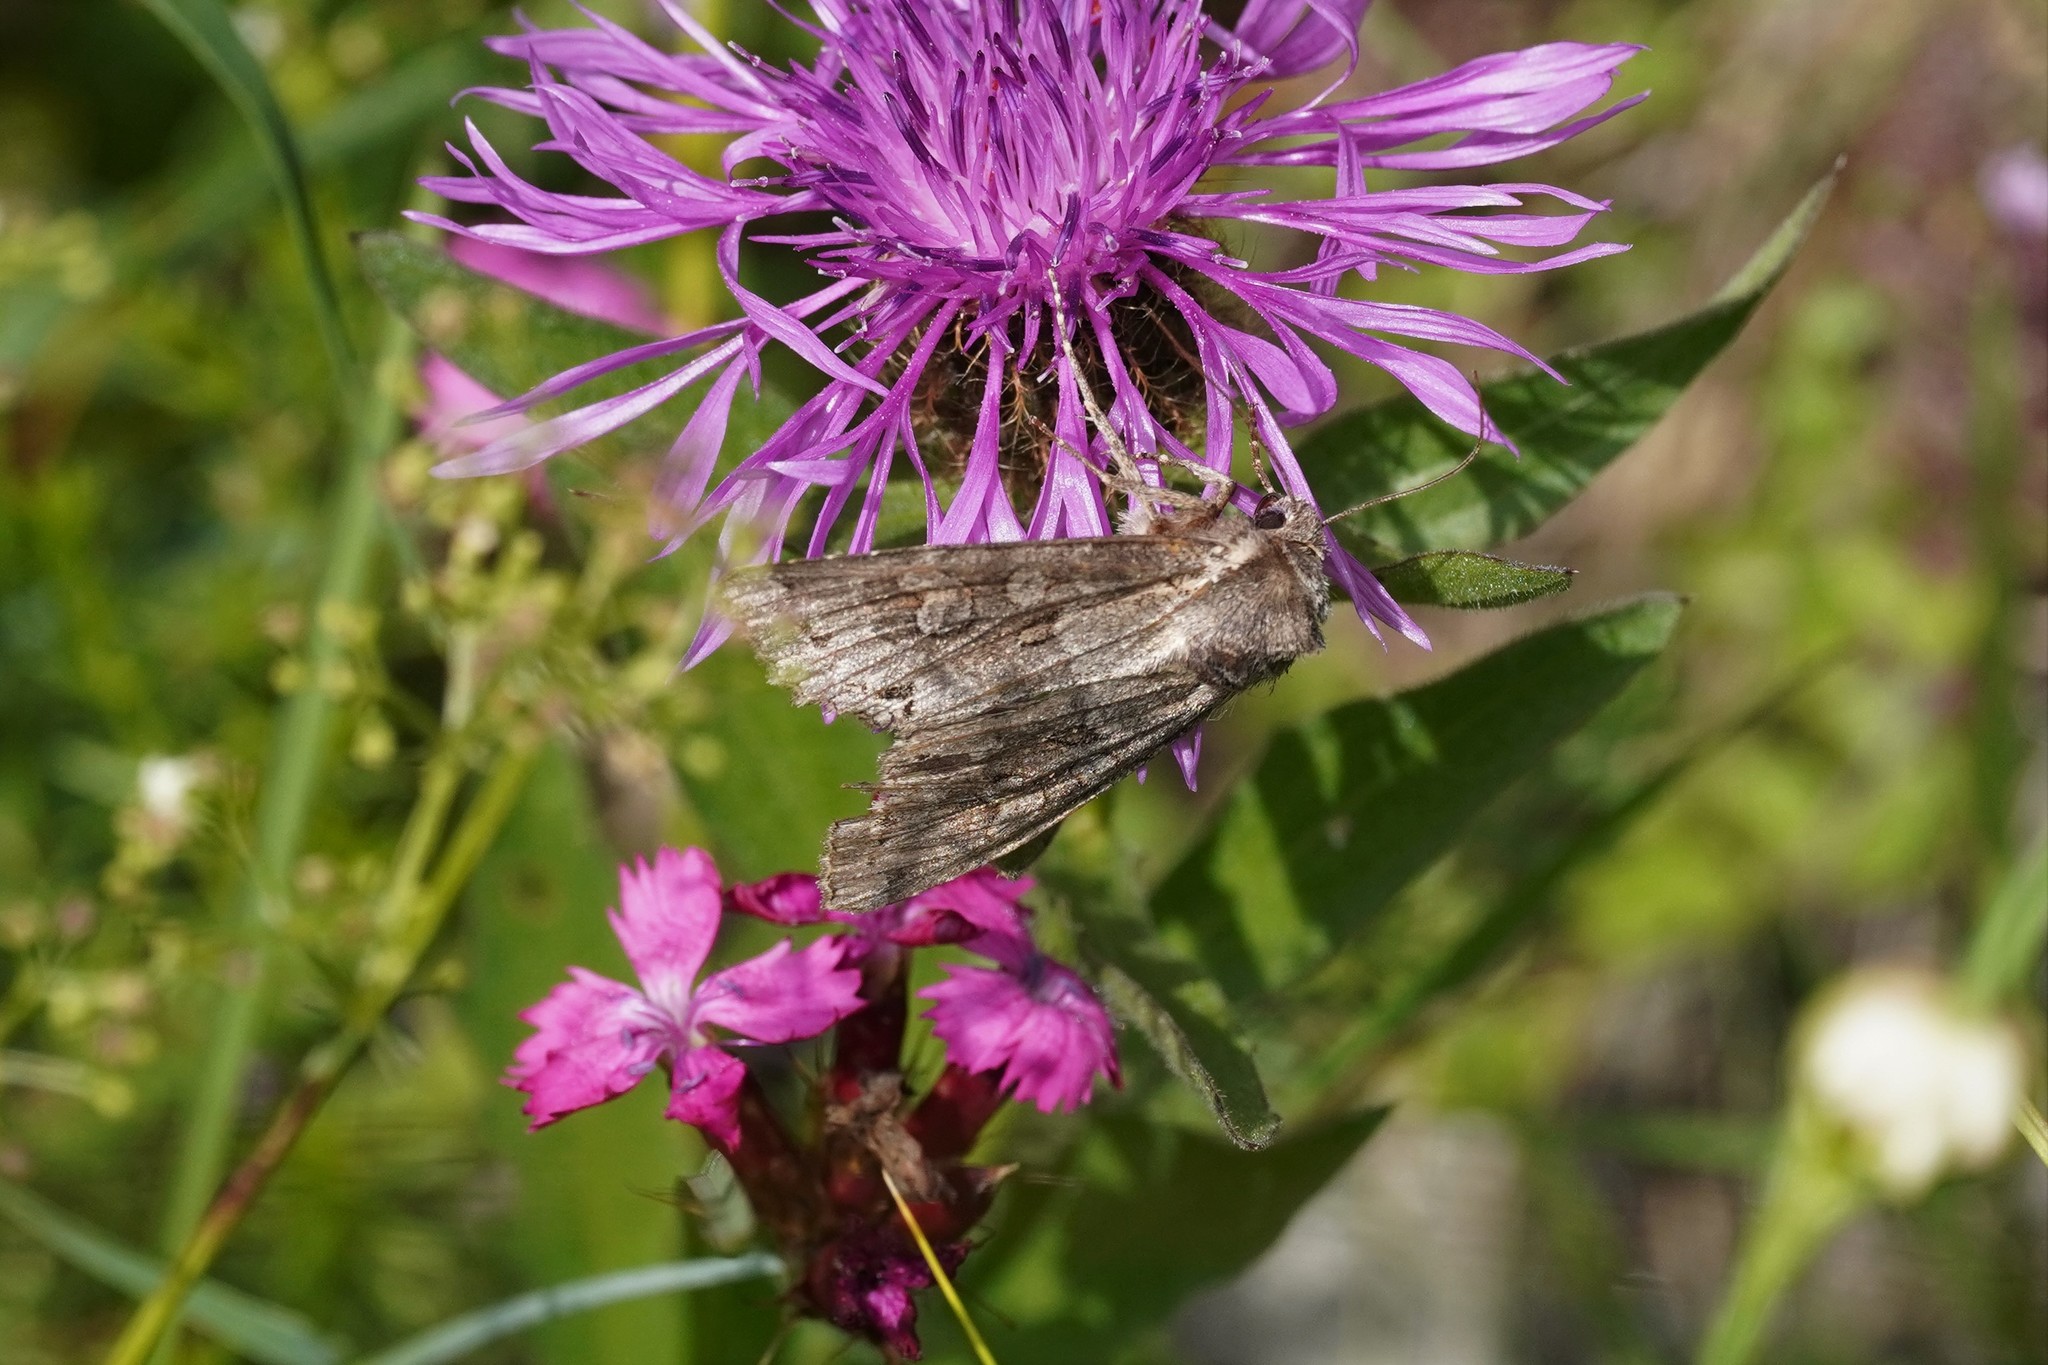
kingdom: Animalia
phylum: Arthropoda
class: Insecta
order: Lepidoptera
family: Noctuidae
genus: Polia
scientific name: Polia bombycina
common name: Pale shining brown
